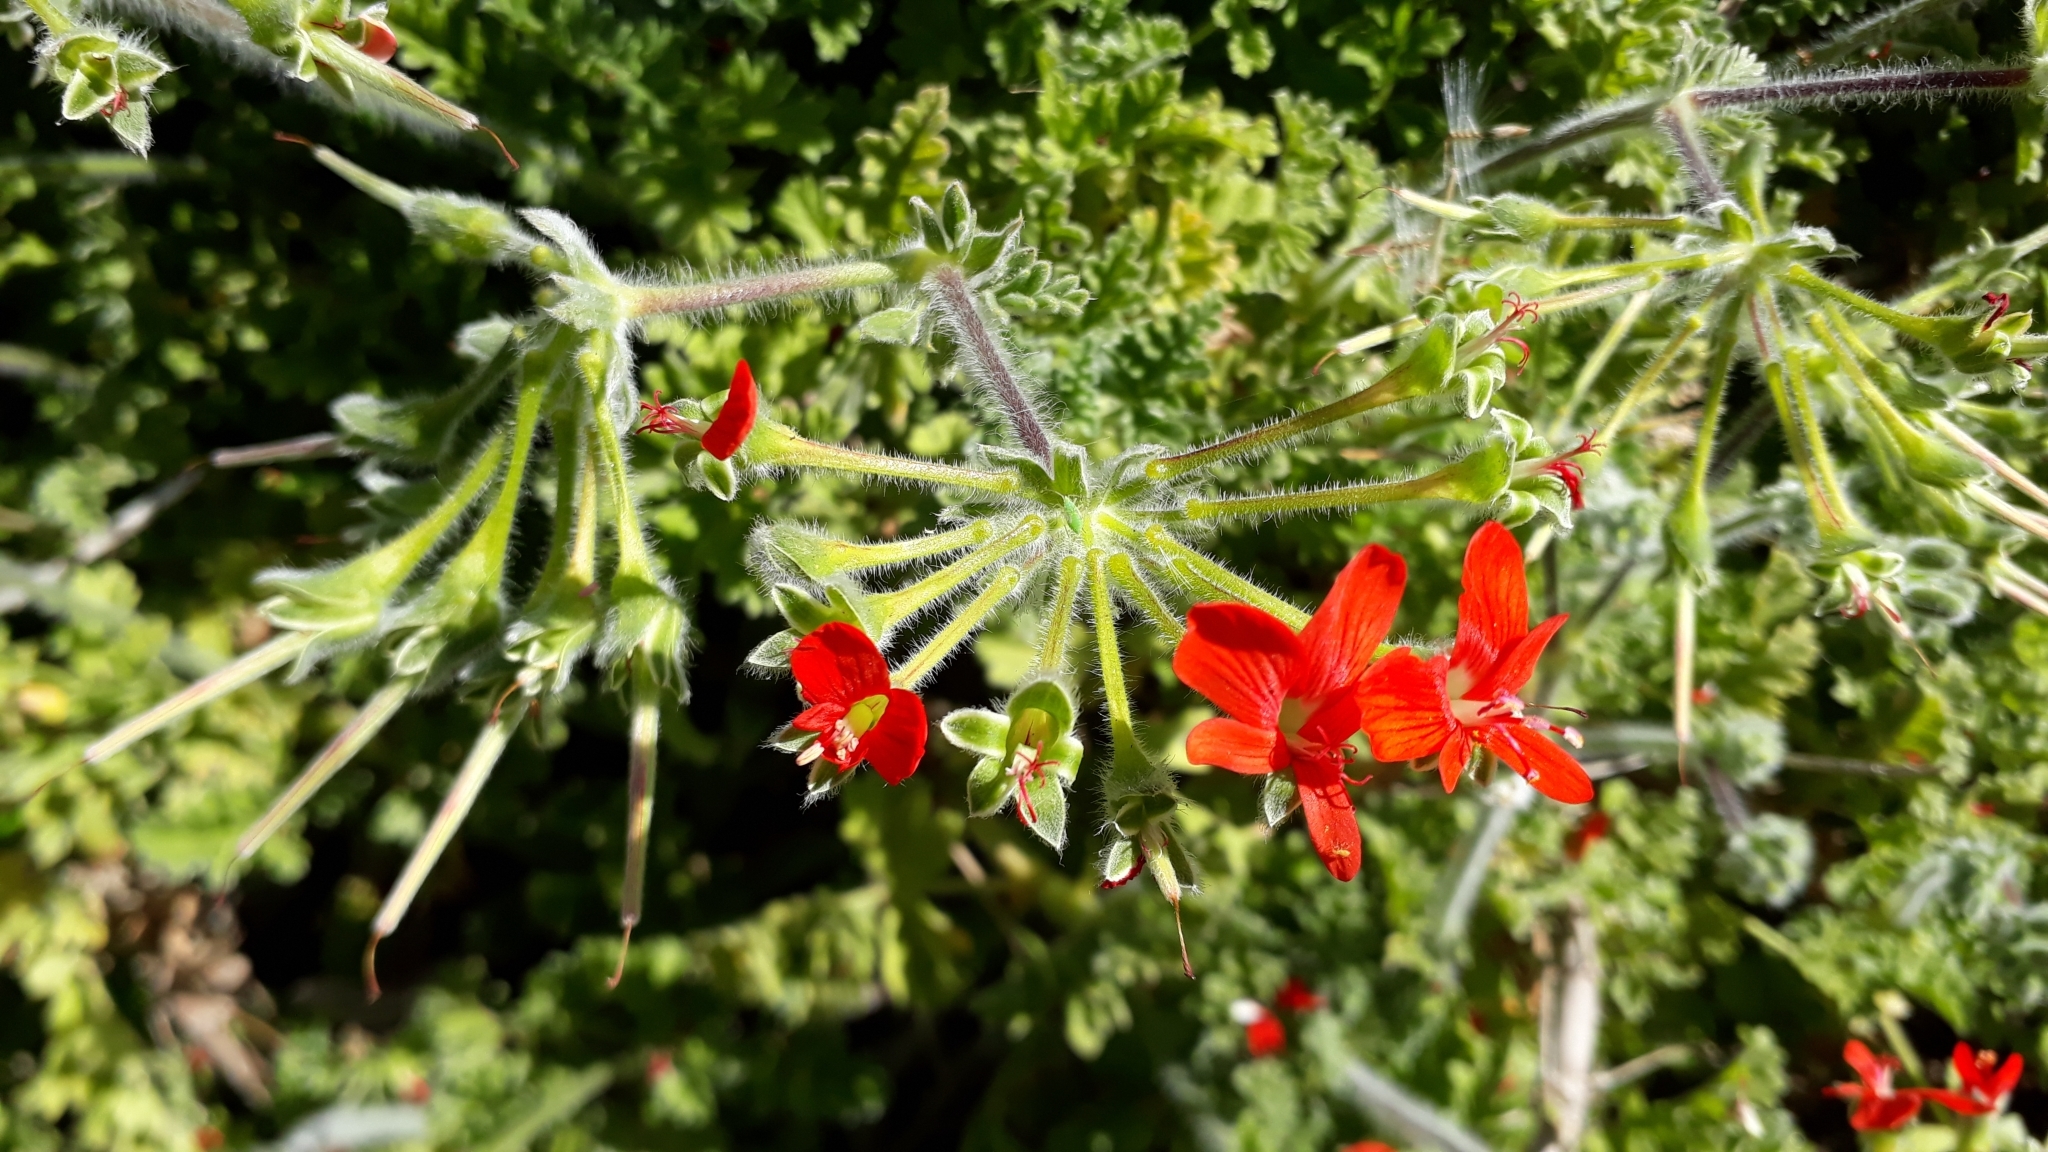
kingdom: Plantae
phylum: Tracheophyta
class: Magnoliopsida
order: Geraniales
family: Geraniaceae
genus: Pelargonium
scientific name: Pelargonium fulgidum
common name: Celandine-leaf pelargonium
